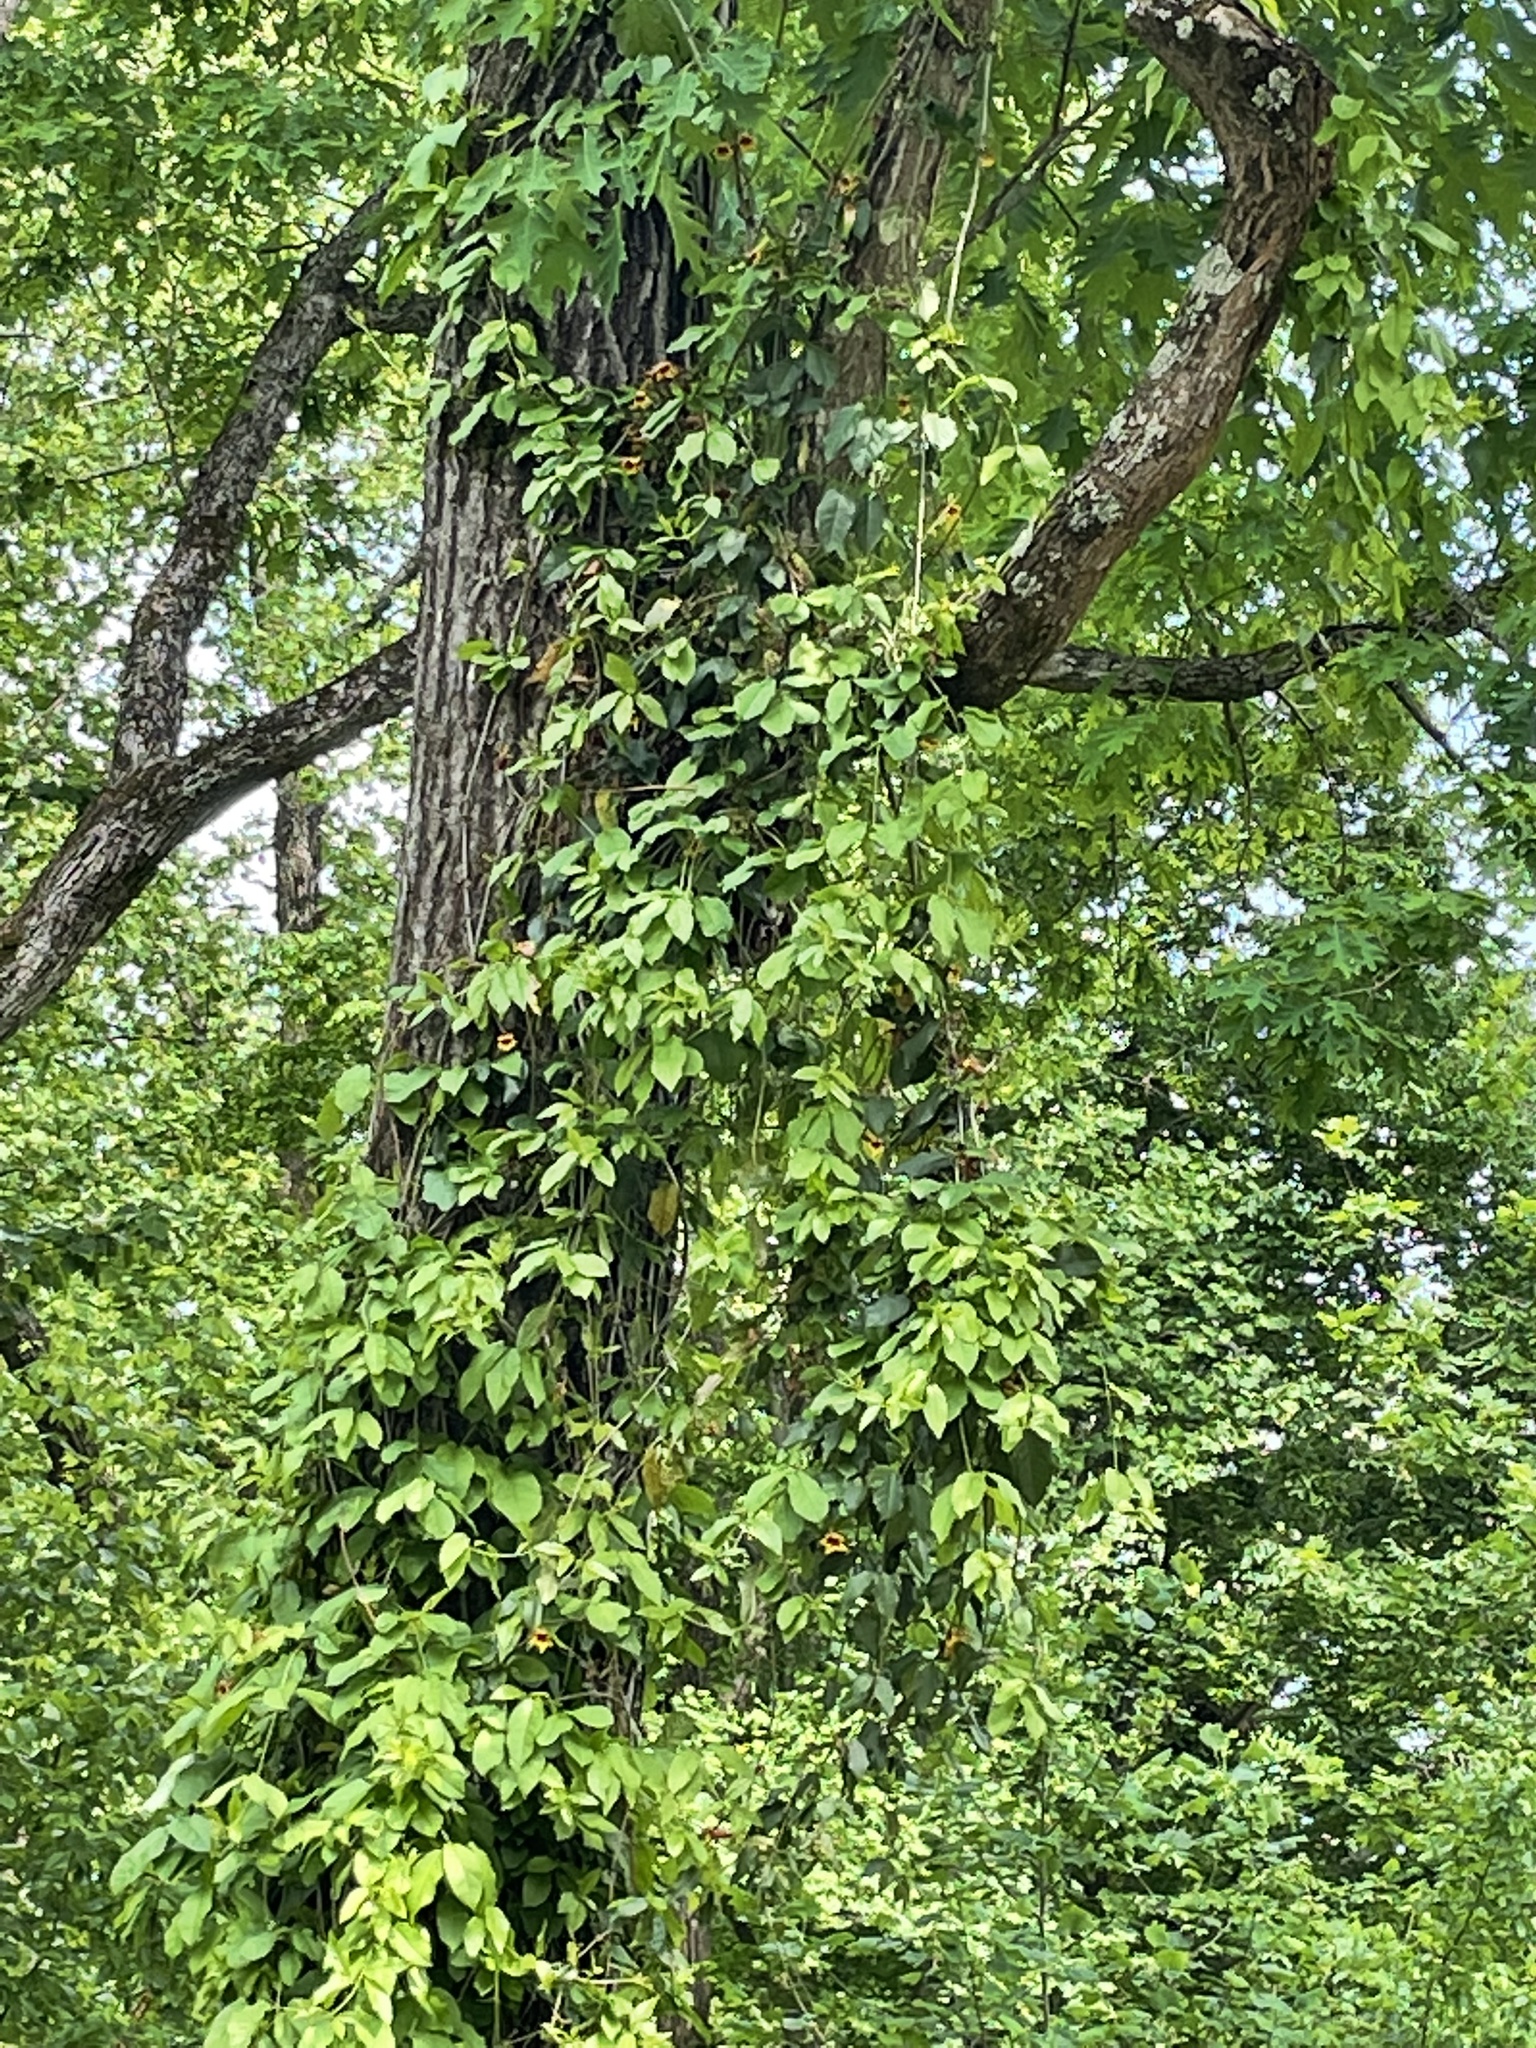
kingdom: Plantae
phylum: Tracheophyta
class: Magnoliopsida
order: Lamiales
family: Bignoniaceae
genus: Bignonia
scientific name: Bignonia capreolata
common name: Crossvine
